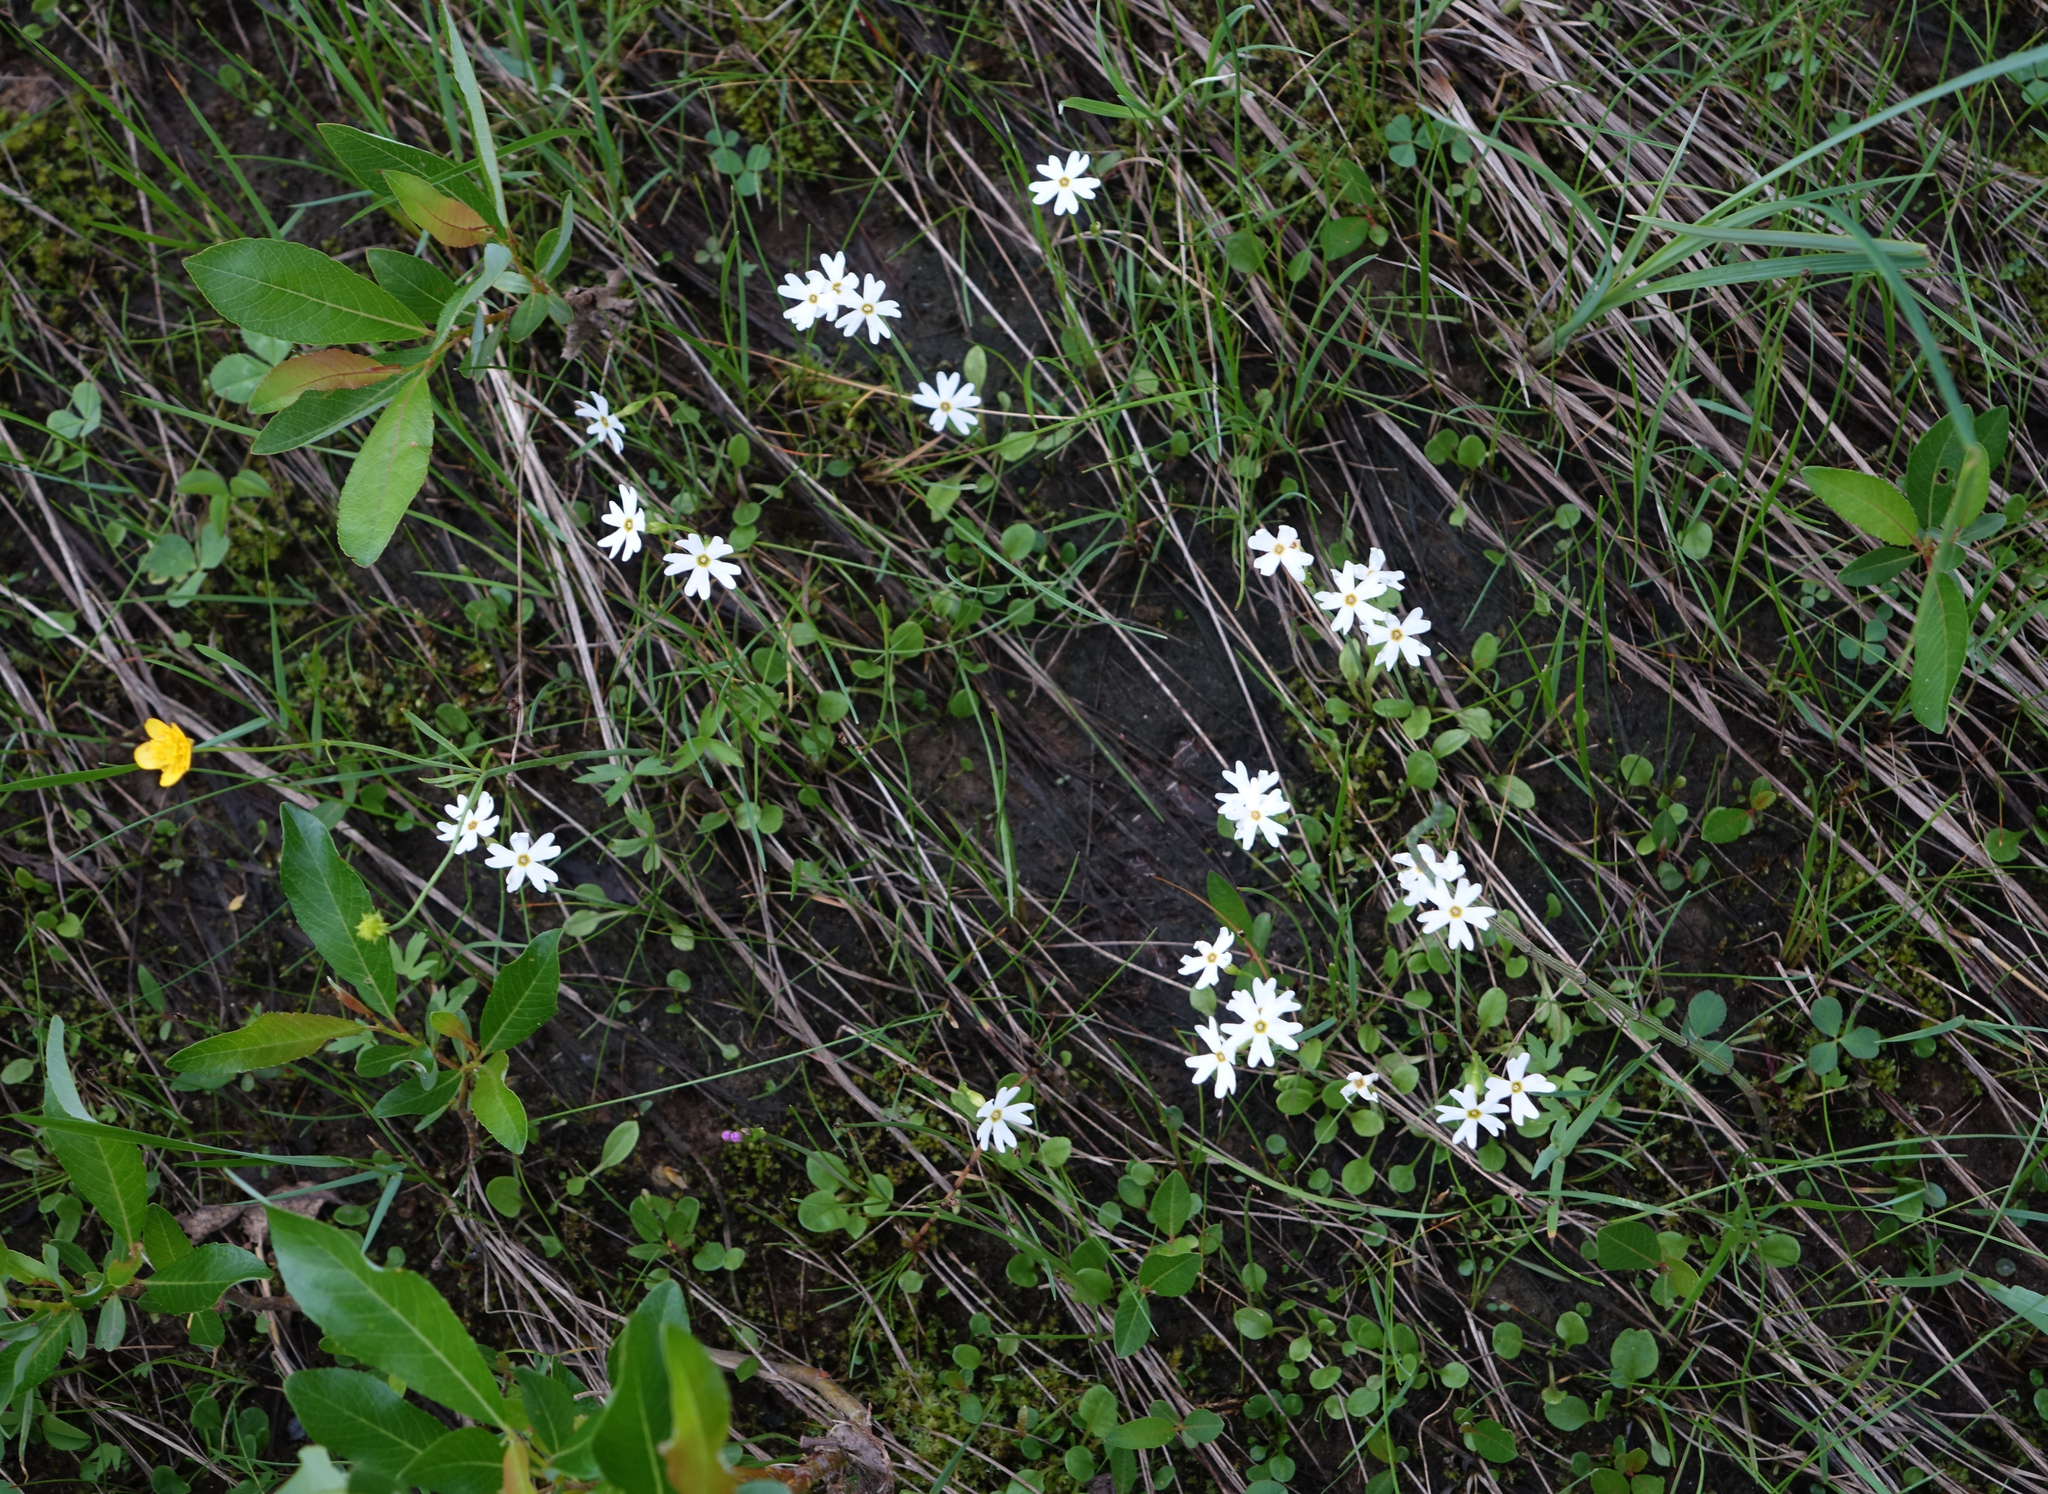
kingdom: Plantae
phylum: Tracheophyta
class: Magnoliopsida
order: Ericales
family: Primulaceae
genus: Primula
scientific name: Primula nutans
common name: Siberian primrose
